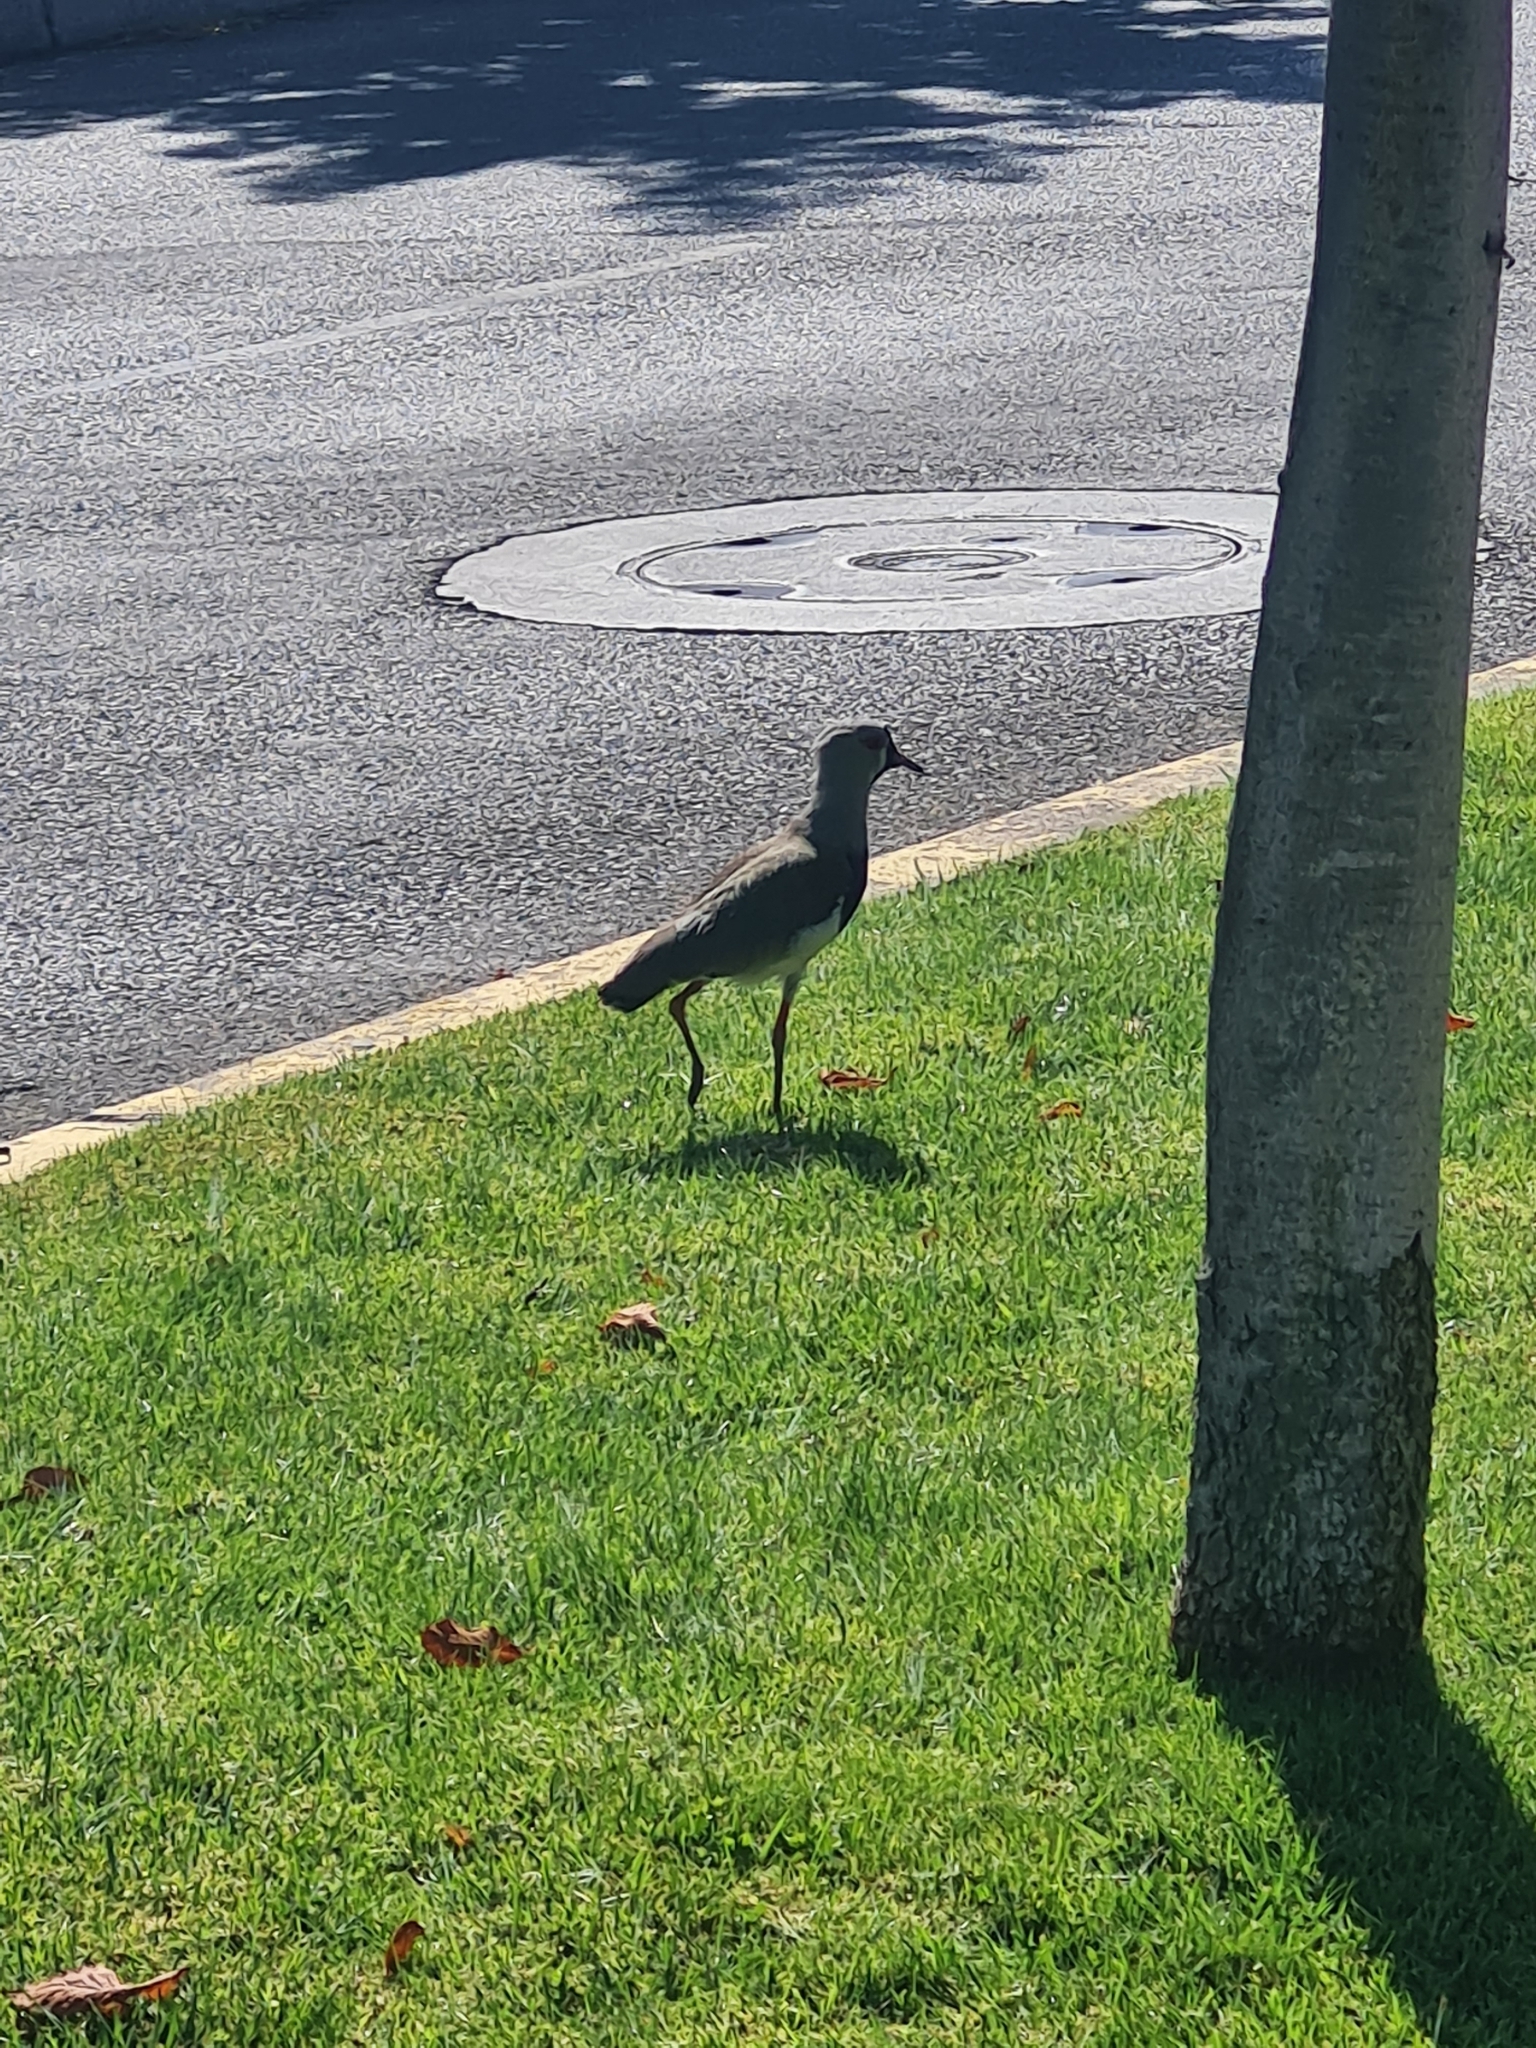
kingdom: Animalia
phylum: Chordata
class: Aves
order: Charadriiformes
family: Charadriidae
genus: Vanellus
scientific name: Vanellus chilensis
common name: Southern lapwing
